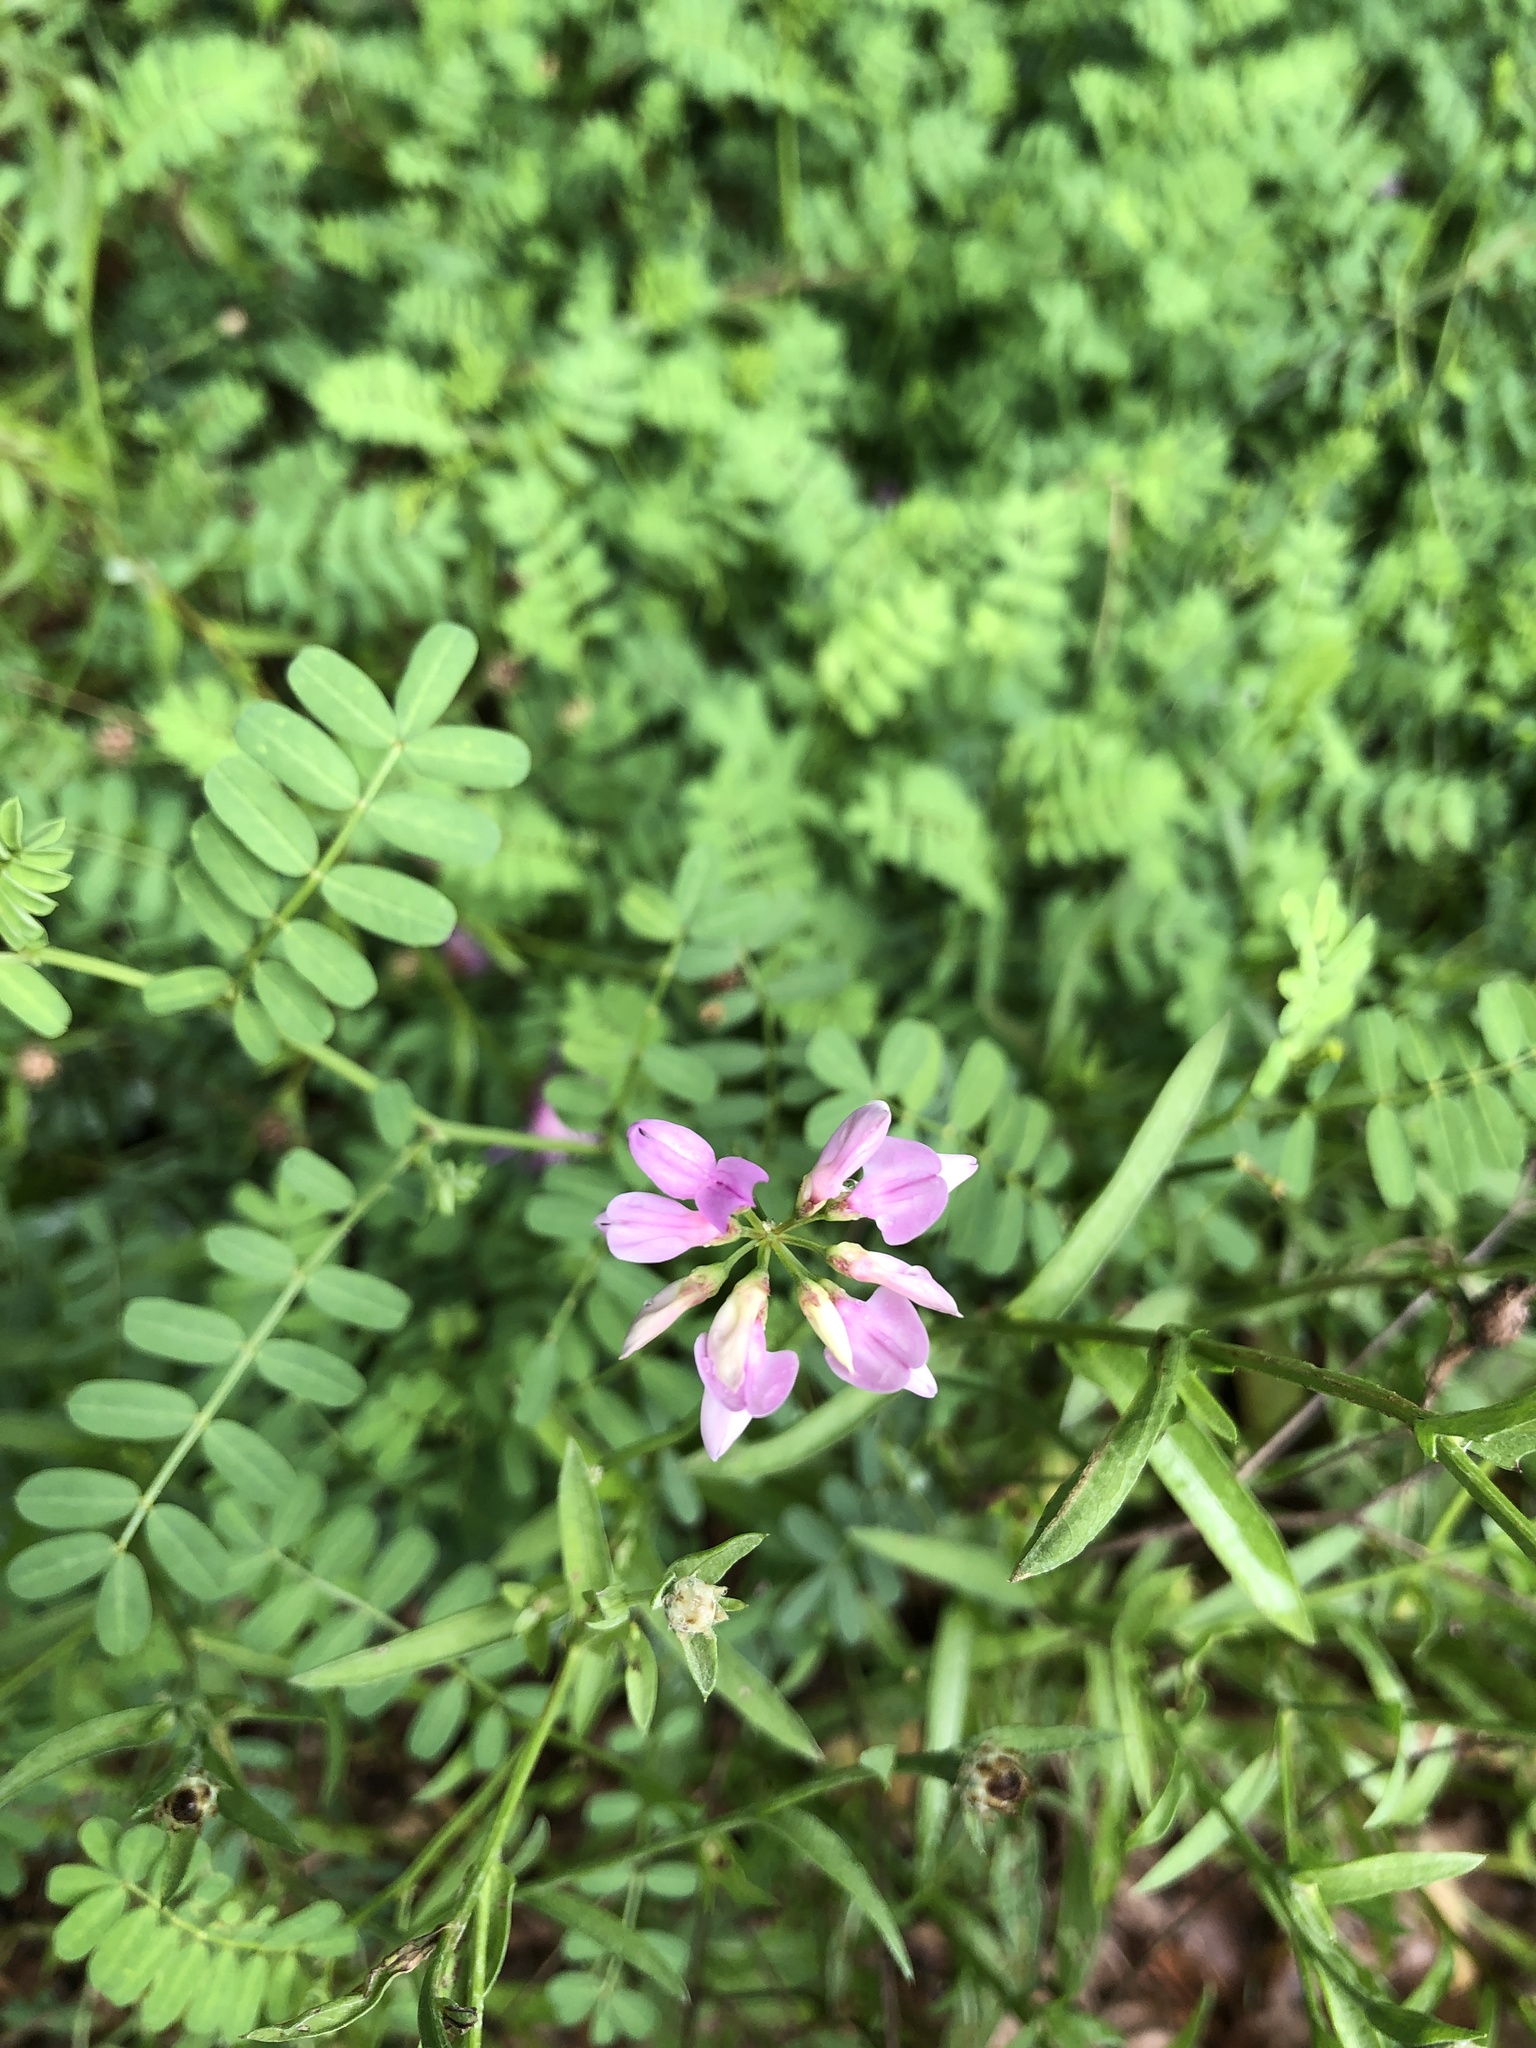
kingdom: Plantae
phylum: Tracheophyta
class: Magnoliopsida
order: Fabales
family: Fabaceae
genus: Coronilla
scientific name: Coronilla varia
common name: Crownvetch
